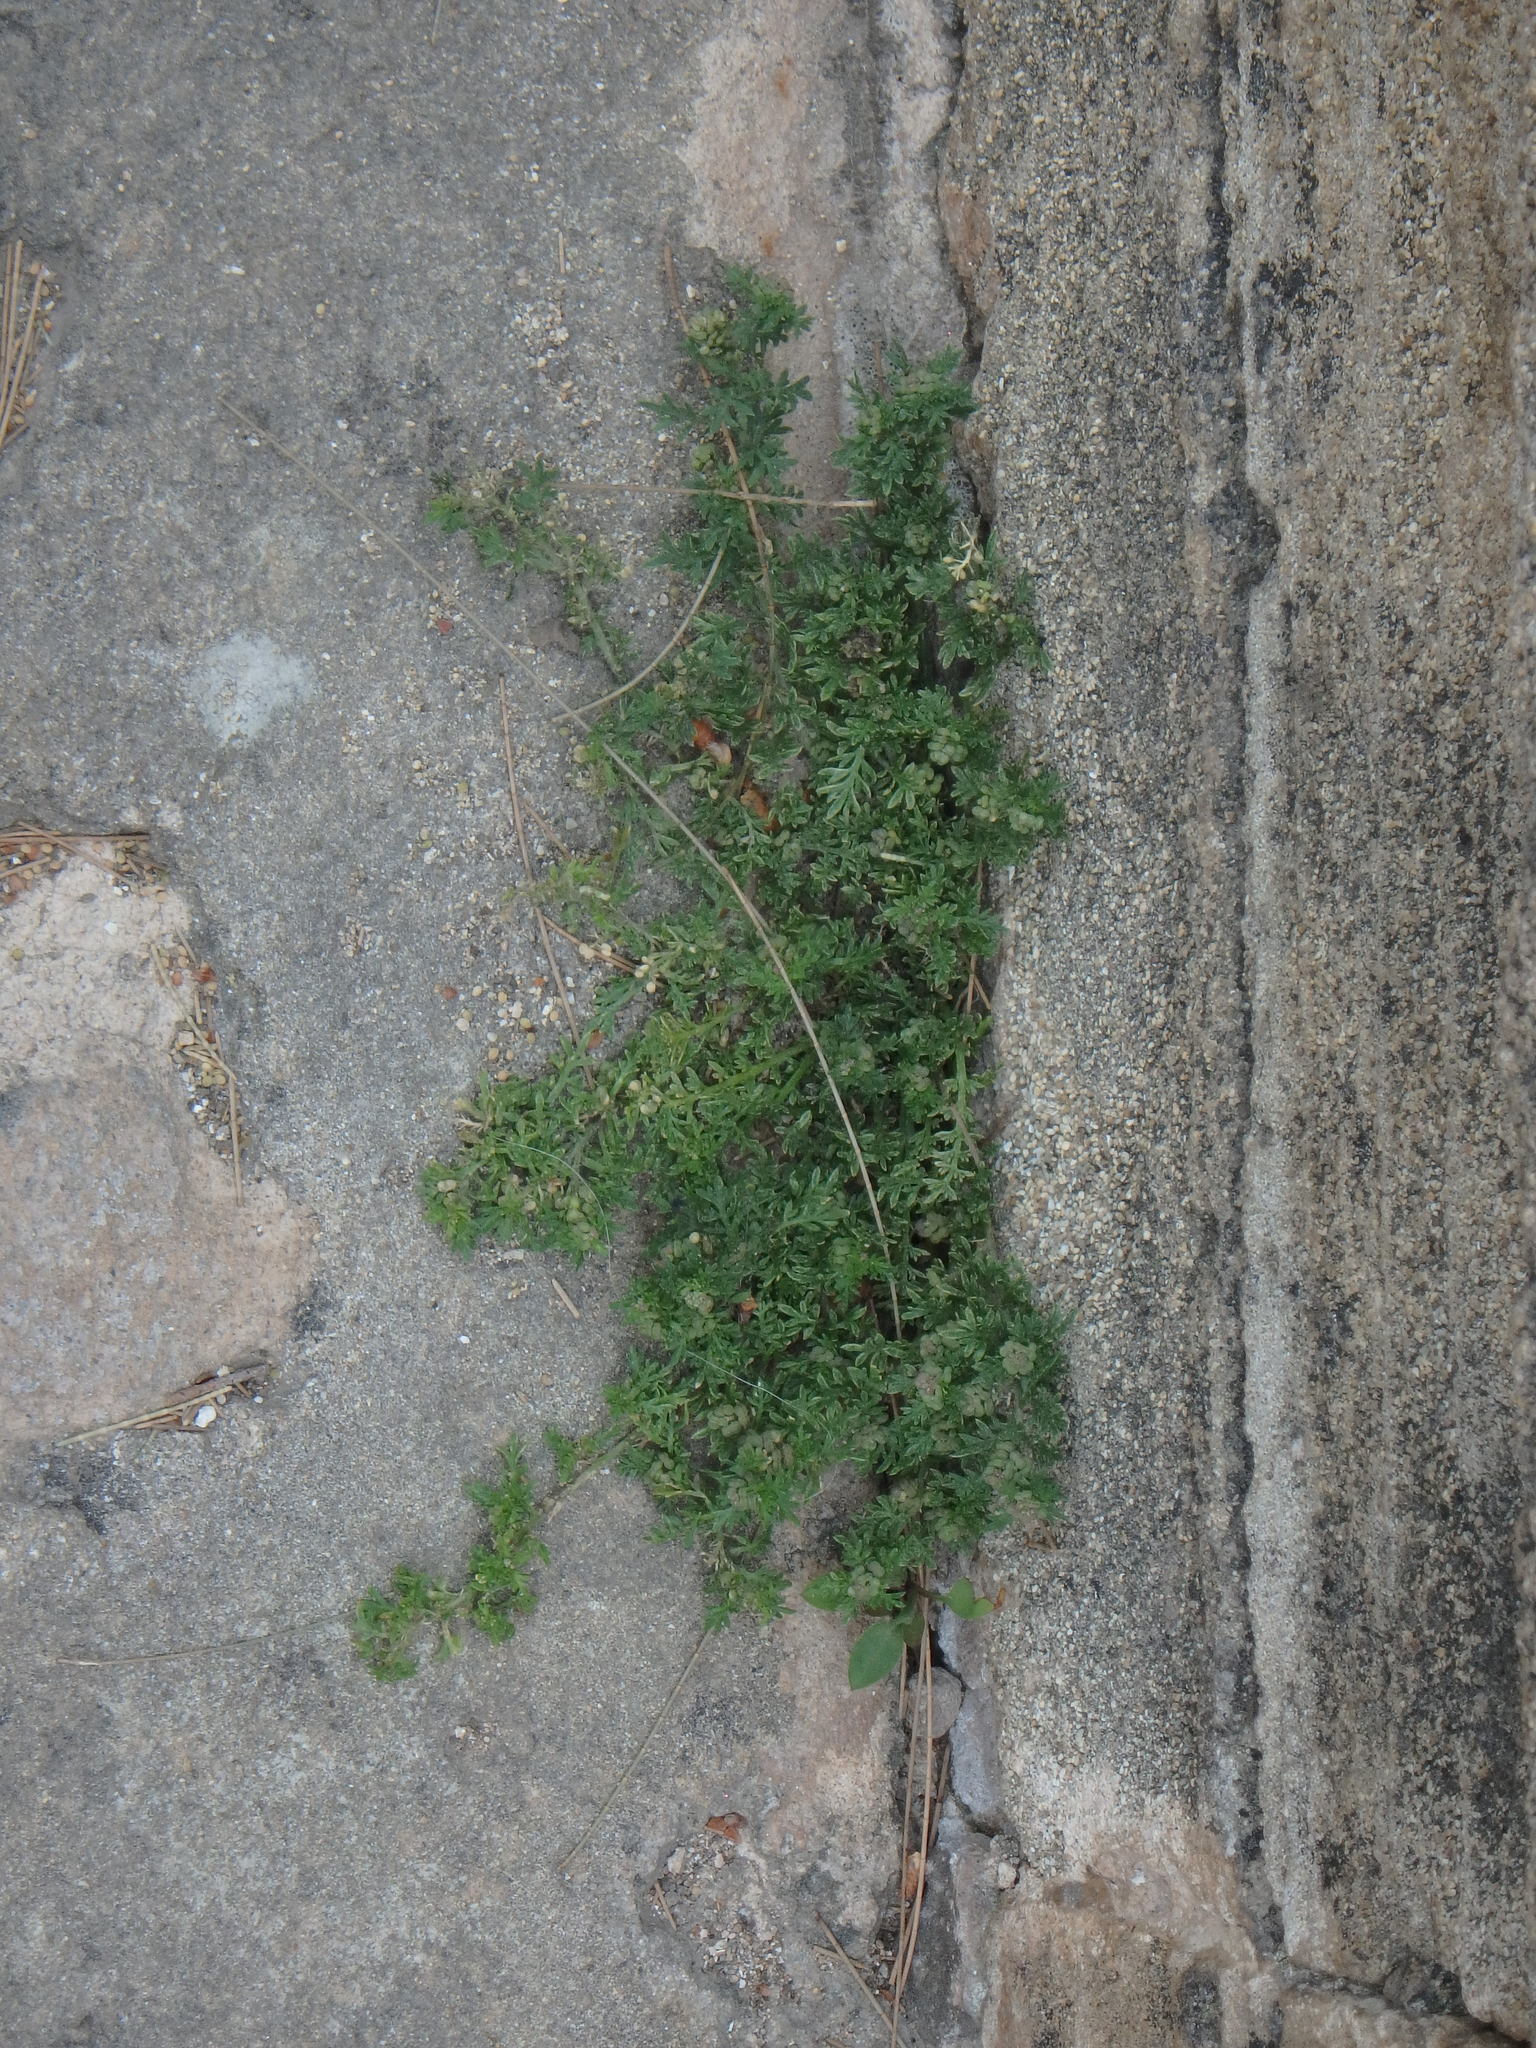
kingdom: Plantae
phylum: Tracheophyta
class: Magnoliopsida
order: Brassicales
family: Brassicaceae
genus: Lepidium
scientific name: Lepidium didymum
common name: Lesser swinecress
